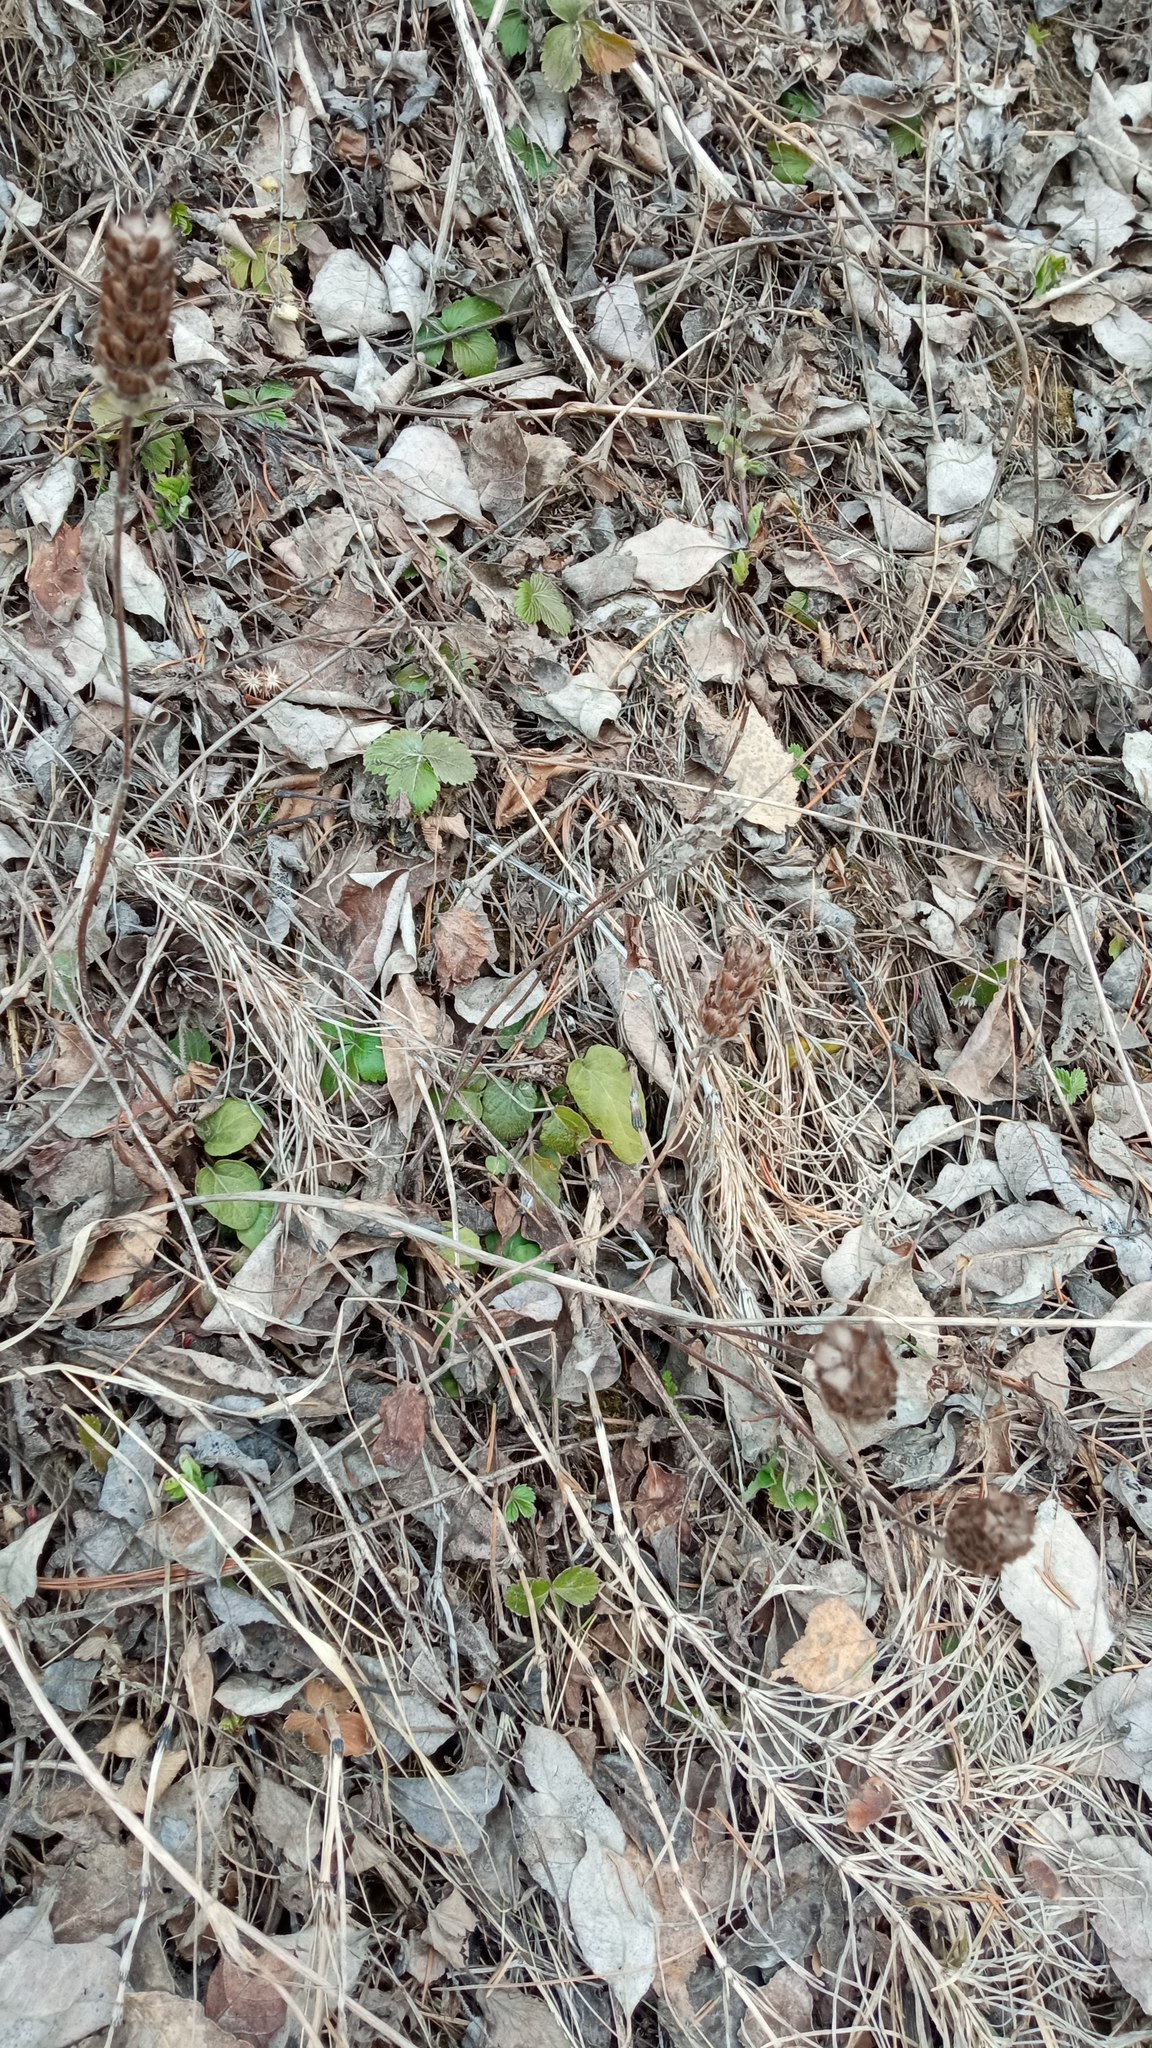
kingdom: Plantae
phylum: Tracheophyta
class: Magnoliopsida
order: Rosales
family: Rosaceae
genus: Fragaria
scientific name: Fragaria vesca
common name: Wild strawberry
